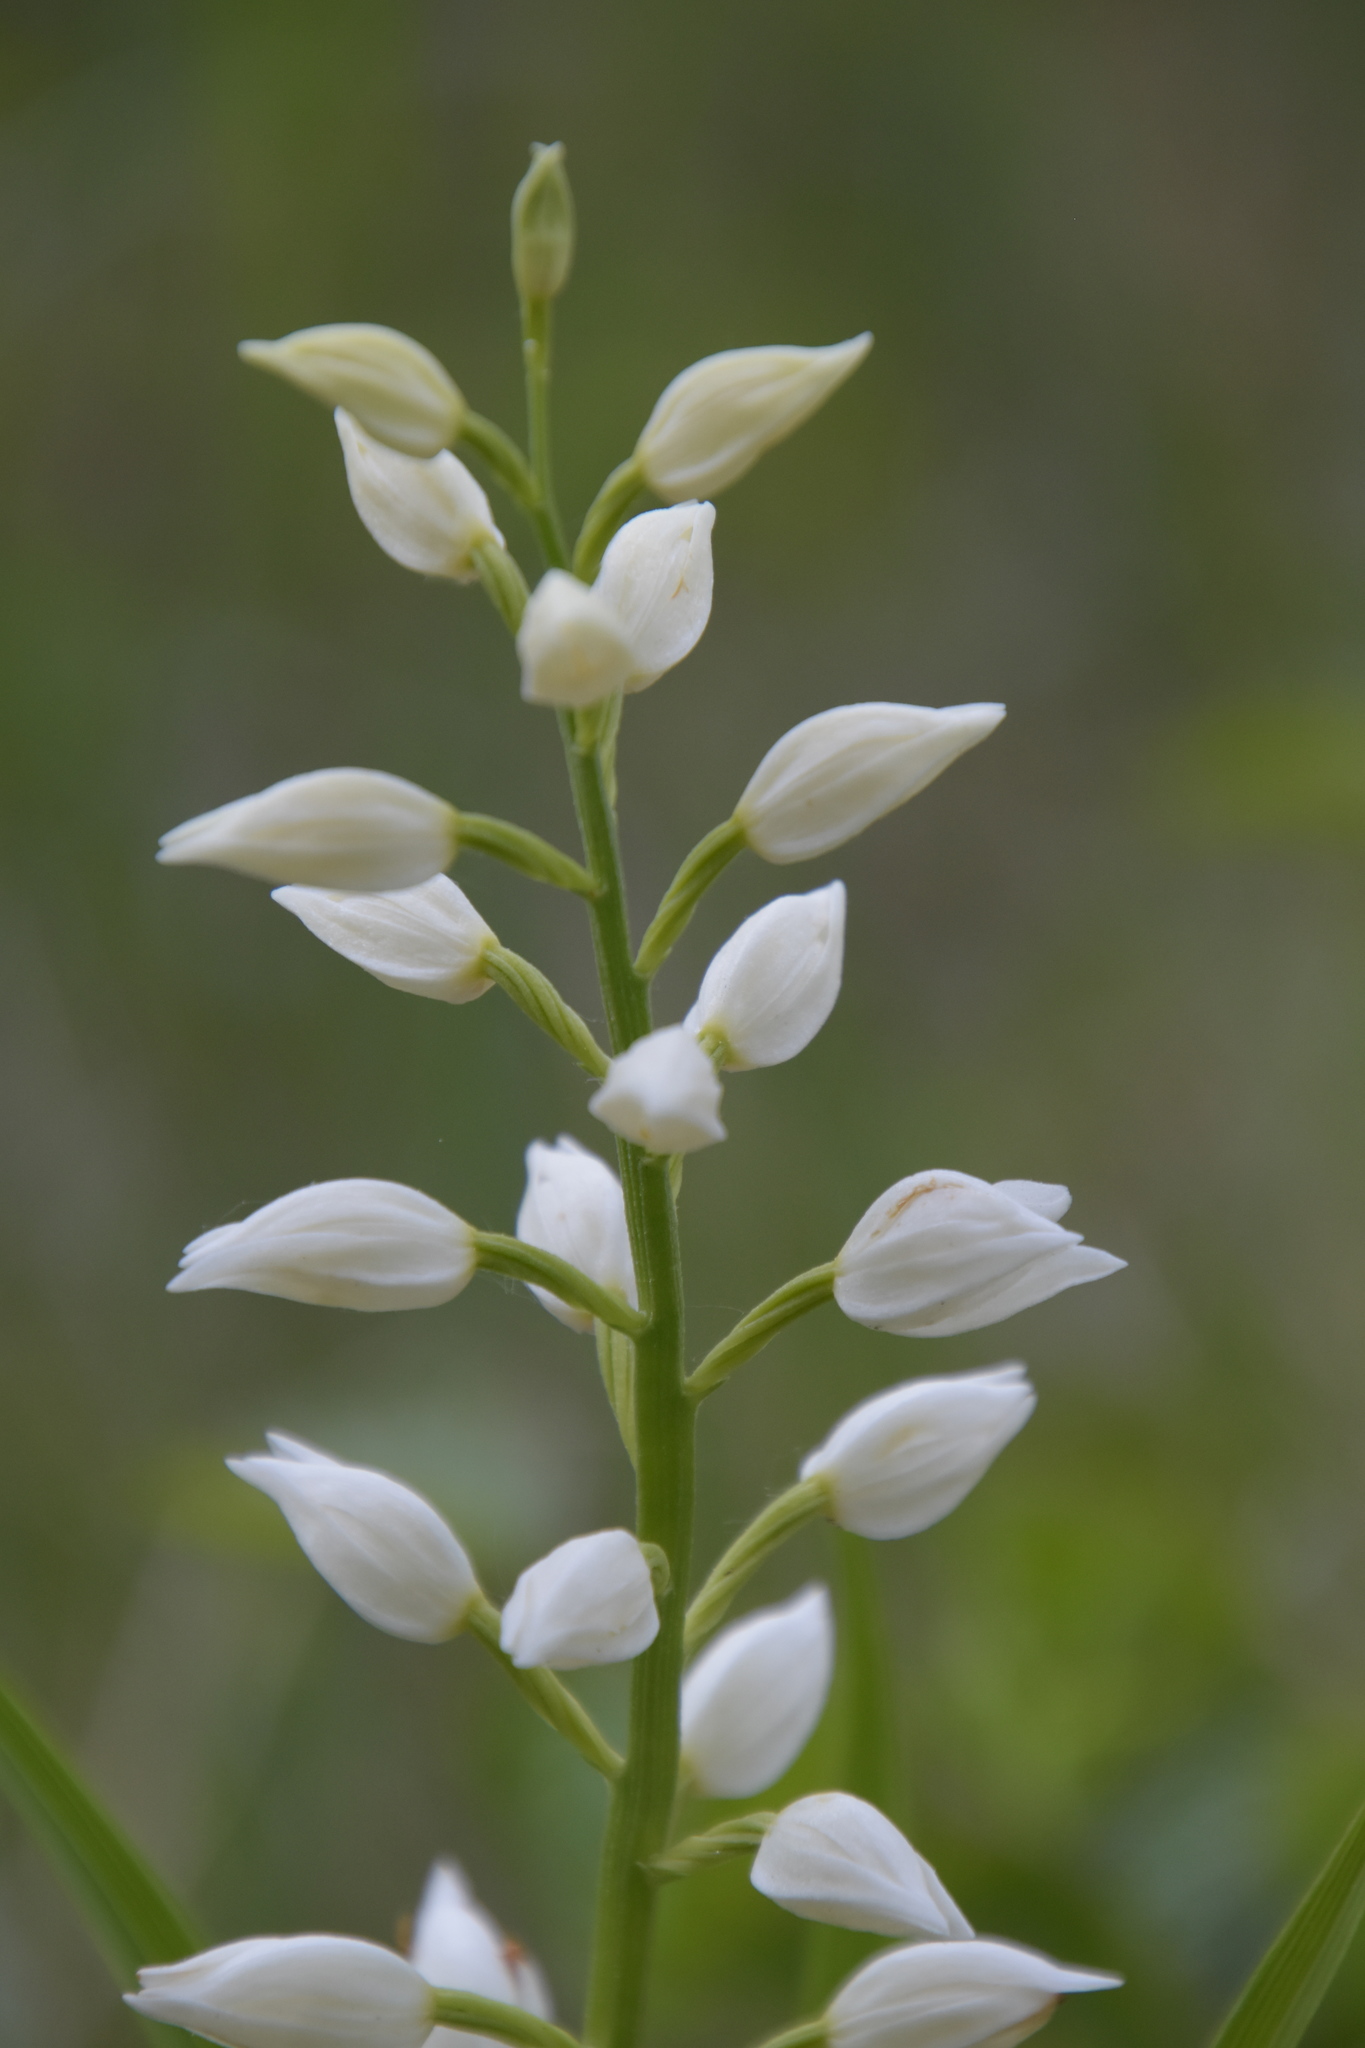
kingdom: Plantae
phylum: Tracheophyta
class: Liliopsida
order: Asparagales
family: Orchidaceae
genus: Cephalanthera
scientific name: Cephalanthera longifolia
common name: Narrow-leaved helleborine
